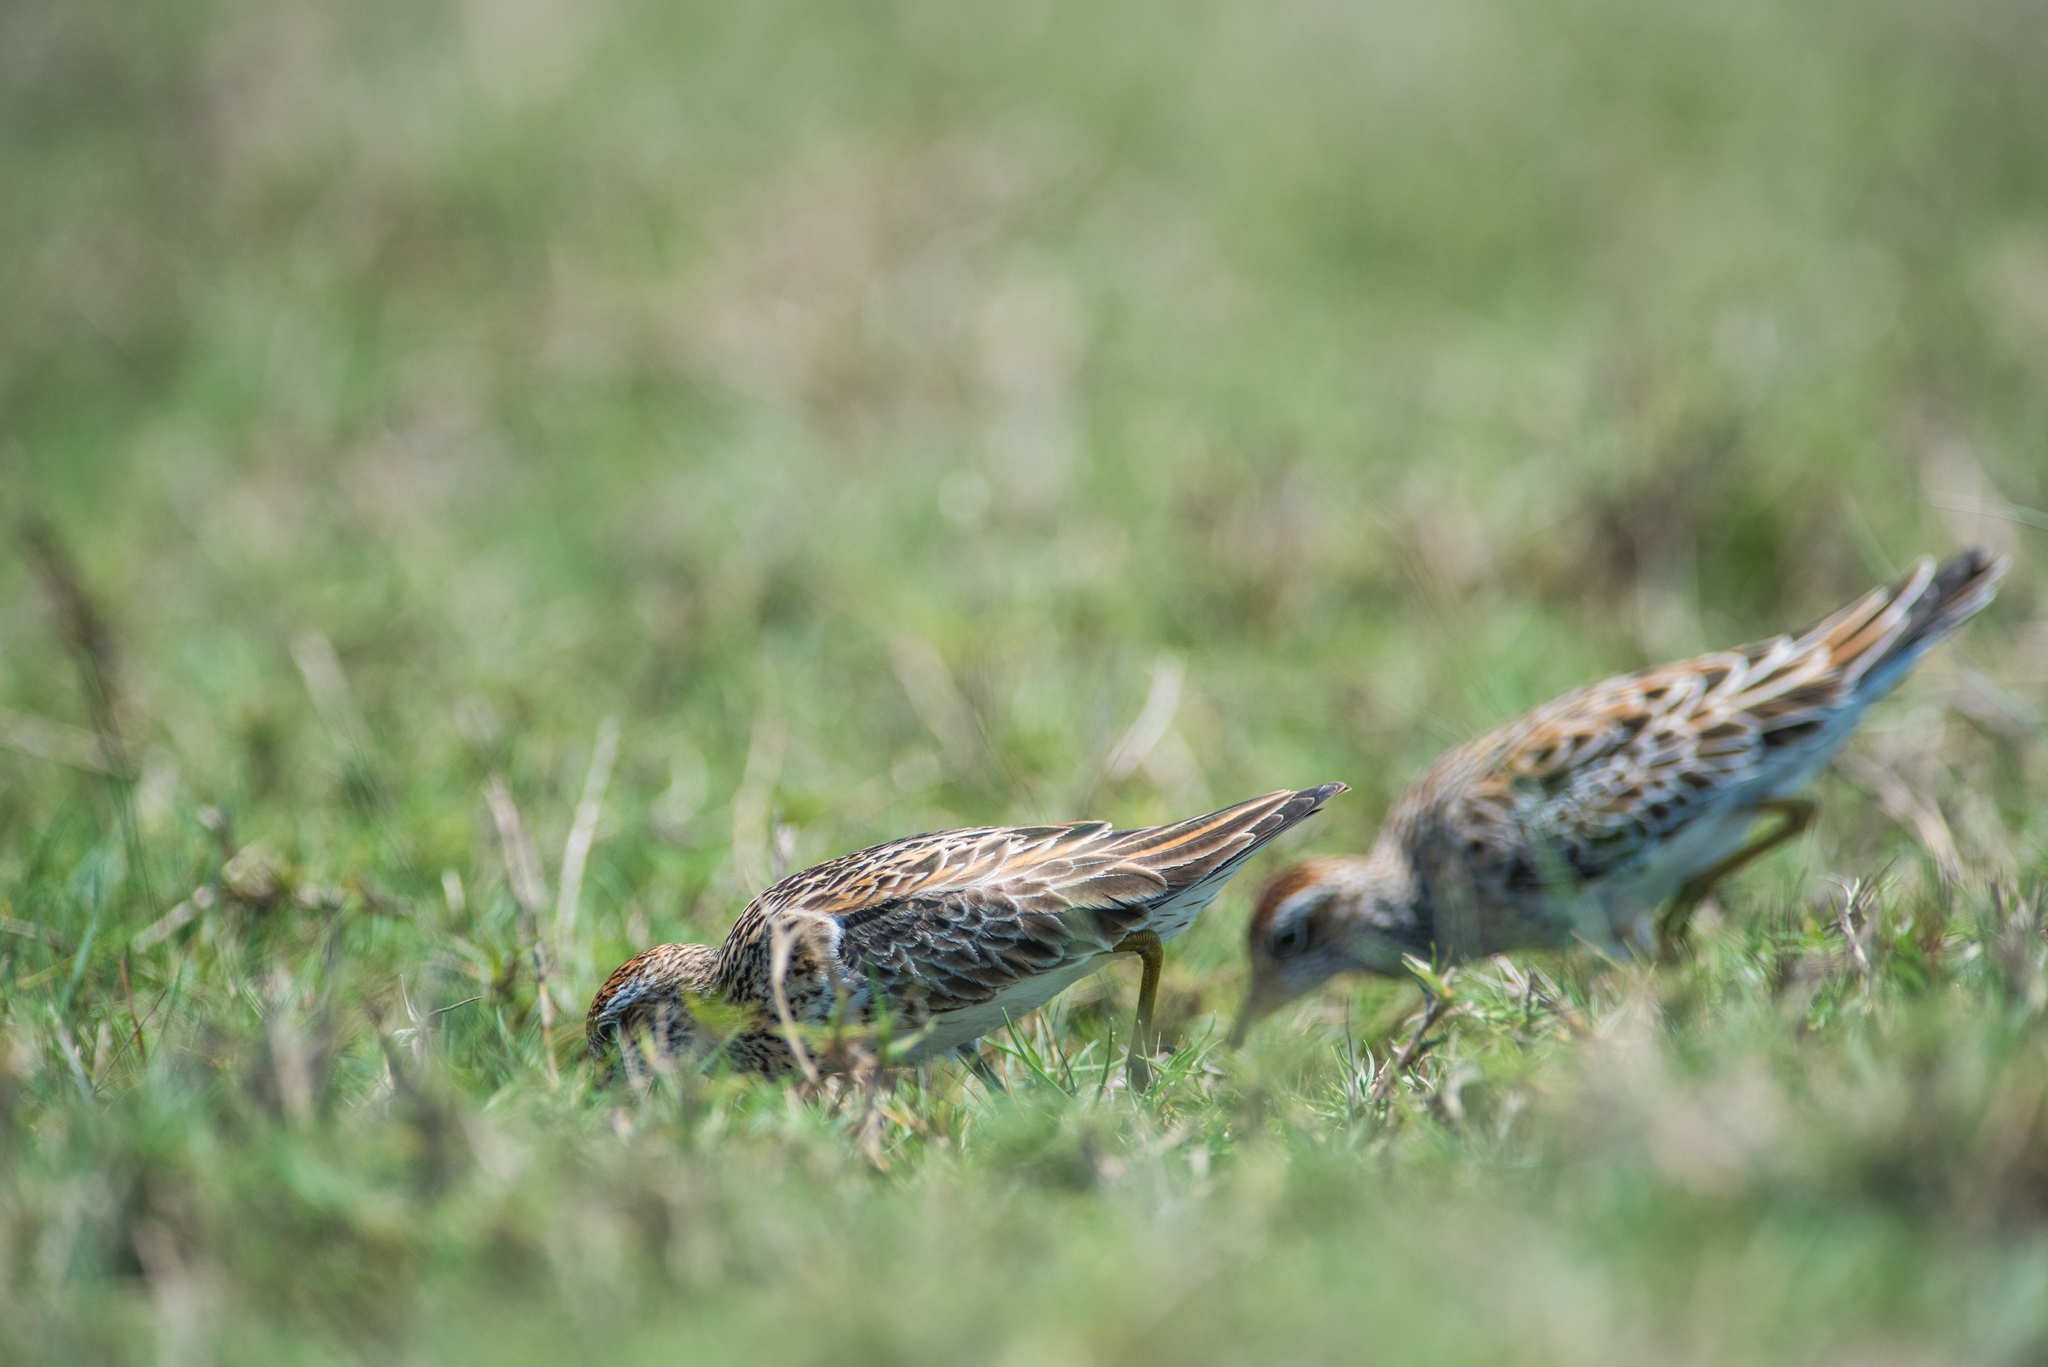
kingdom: Animalia
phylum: Chordata
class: Aves
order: Charadriiformes
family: Scolopacidae
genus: Calidris
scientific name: Calidris acuminata
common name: Sharp-tailed sandpiper
